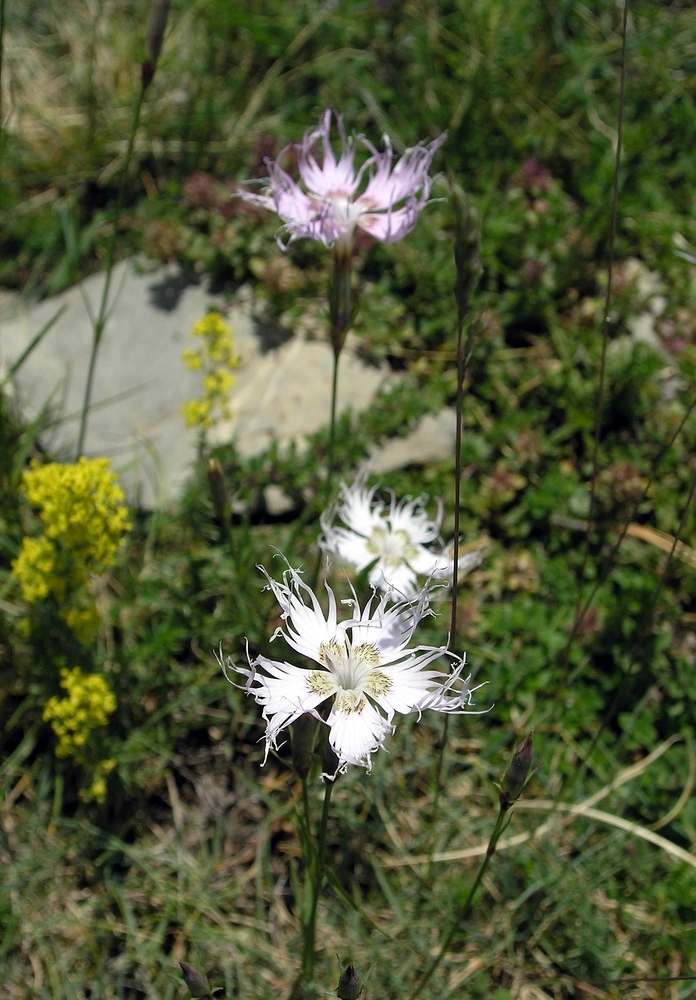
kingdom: Plantae
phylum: Tracheophyta
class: Magnoliopsida
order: Caryophyllales
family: Caryophyllaceae
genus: Dianthus
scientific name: Dianthus hyssopifolius
